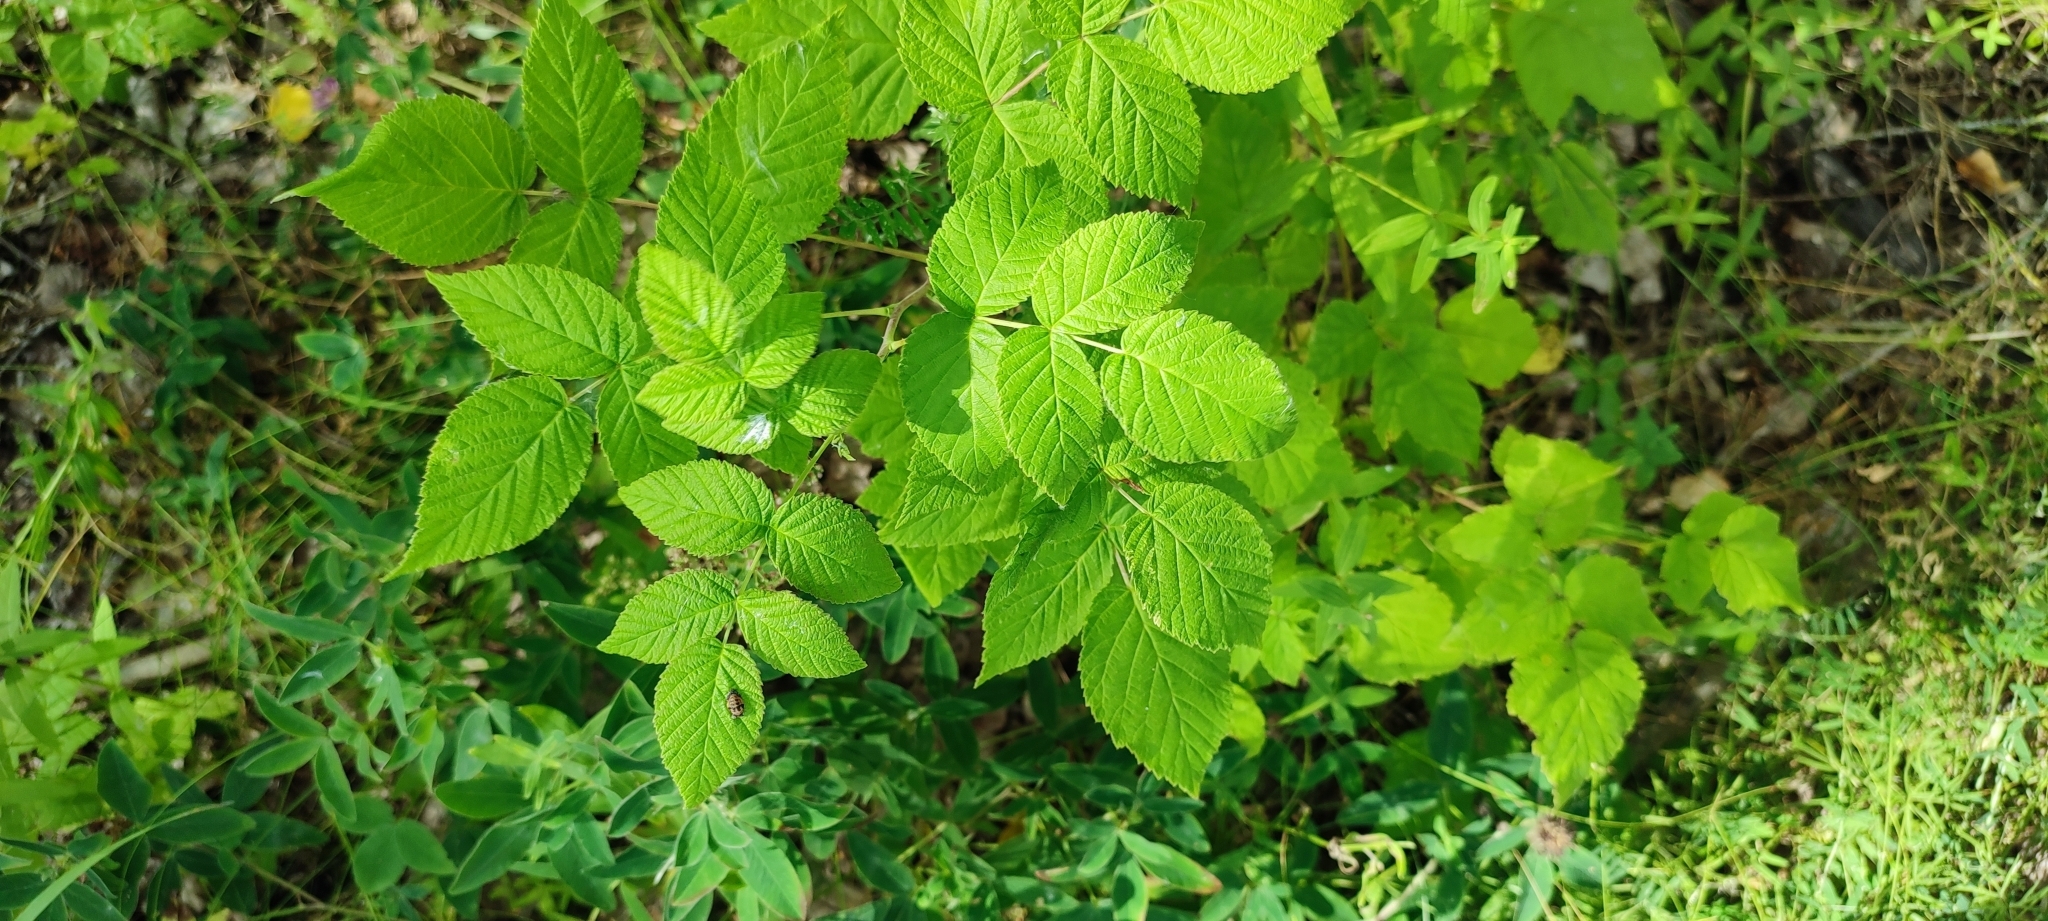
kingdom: Plantae
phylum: Tracheophyta
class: Magnoliopsida
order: Rosales
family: Rosaceae
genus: Rubus
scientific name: Rubus idaeus
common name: Raspberry
